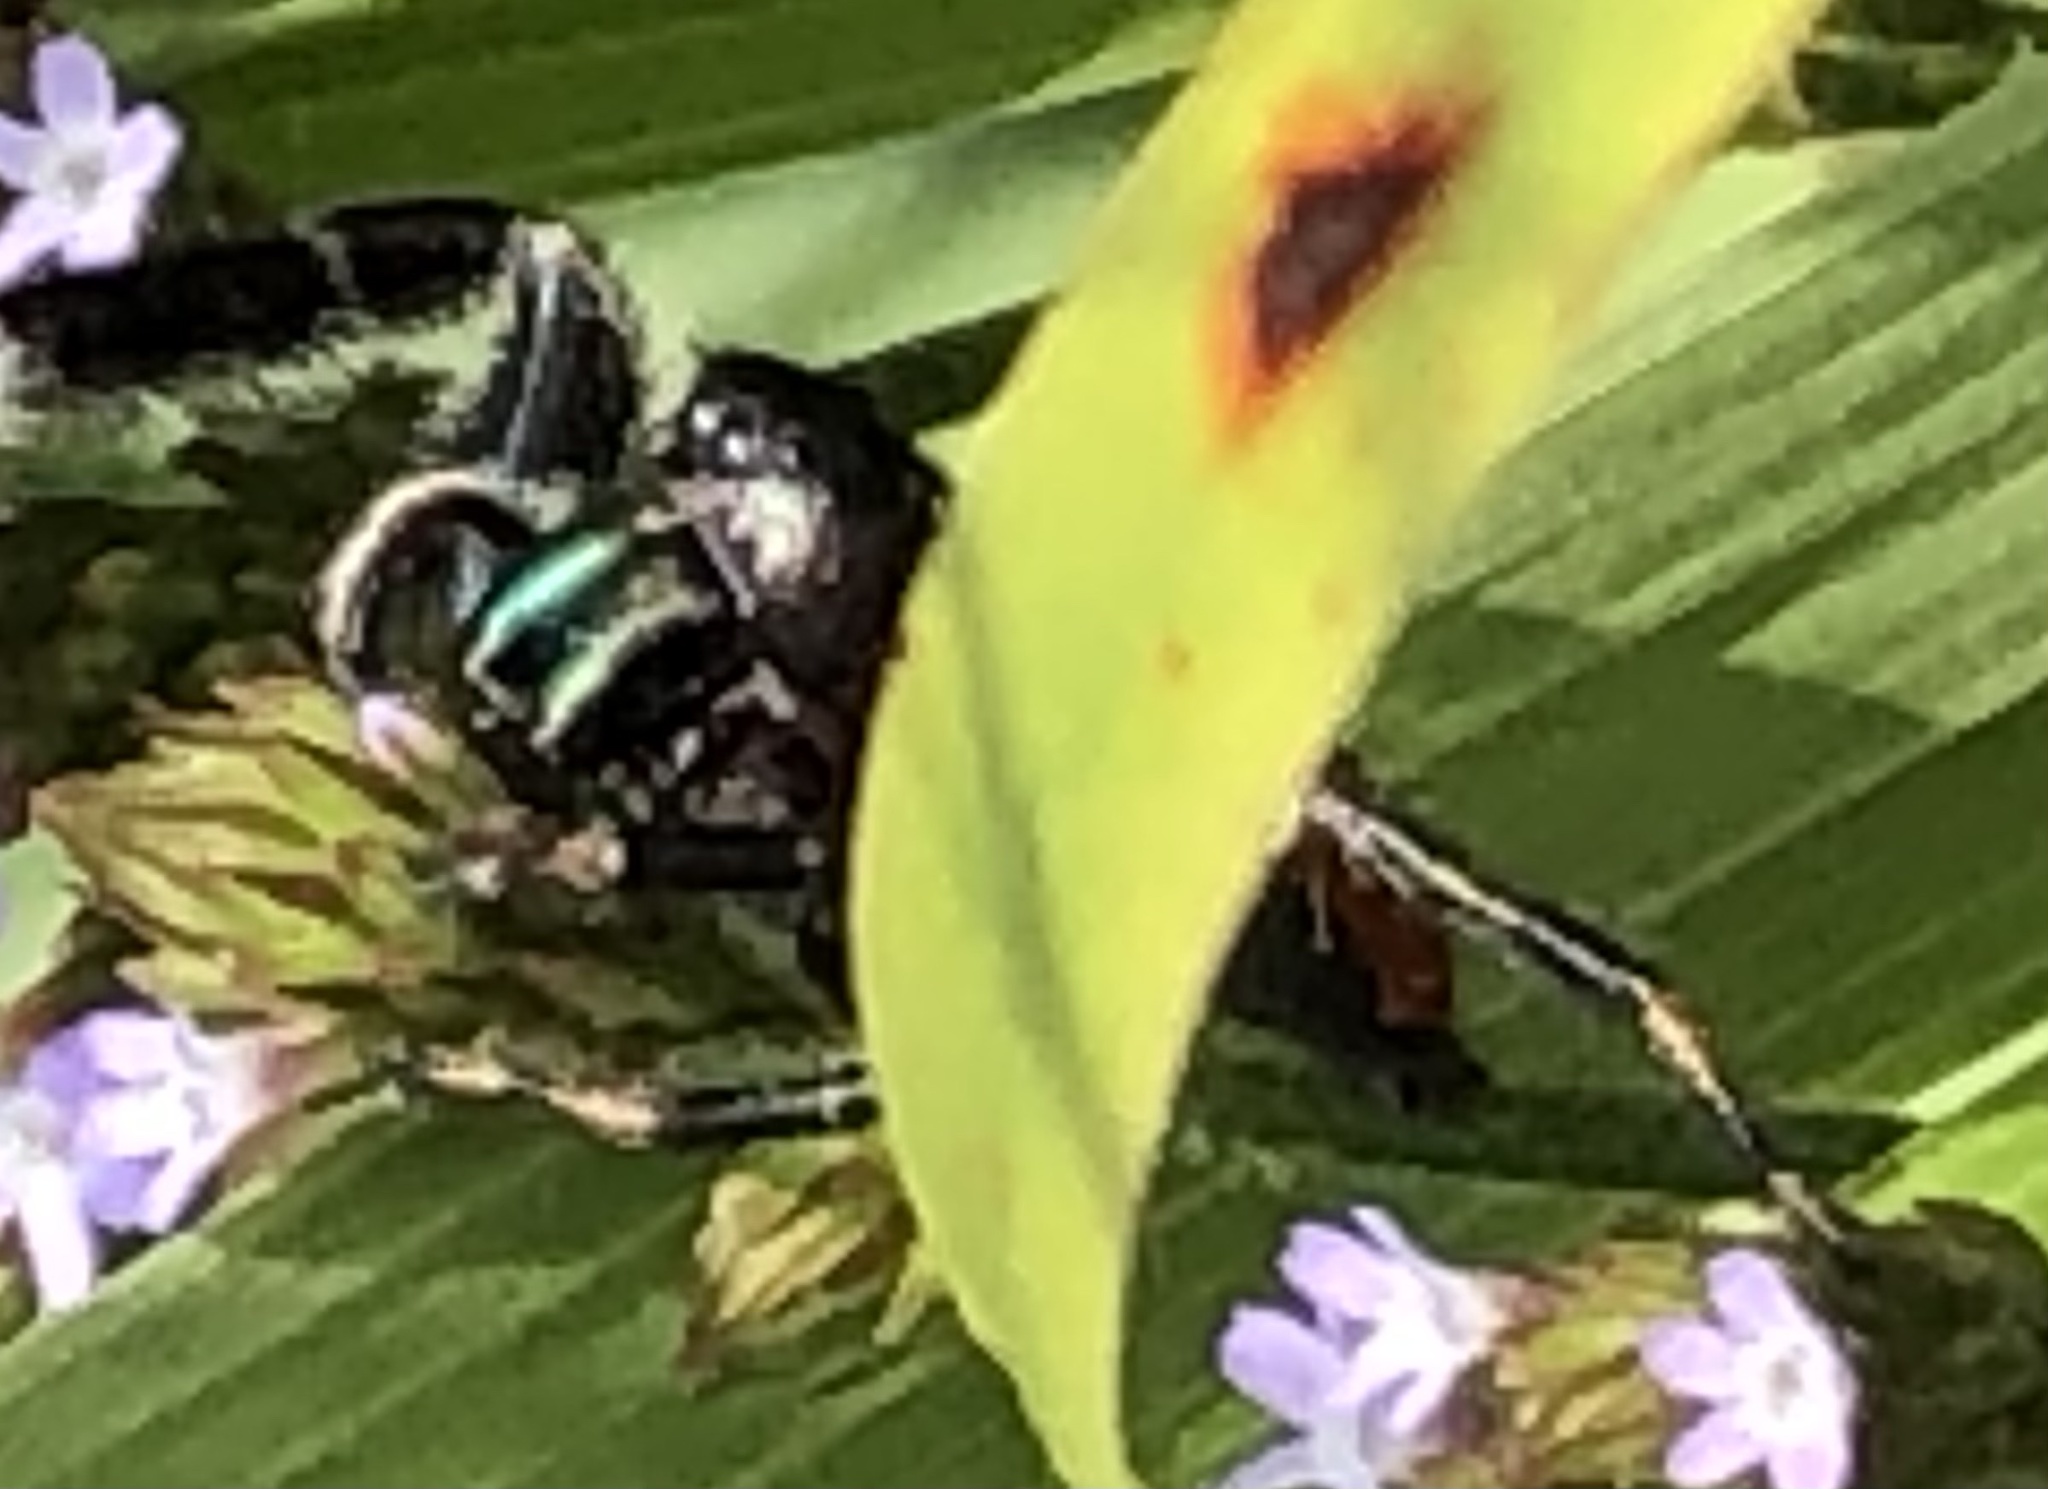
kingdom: Animalia
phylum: Arthropoda
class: Arachnida
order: Araneae
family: Salticidae
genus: Phidippus
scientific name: Phidippus clarus
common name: Brilliant jumping spider
